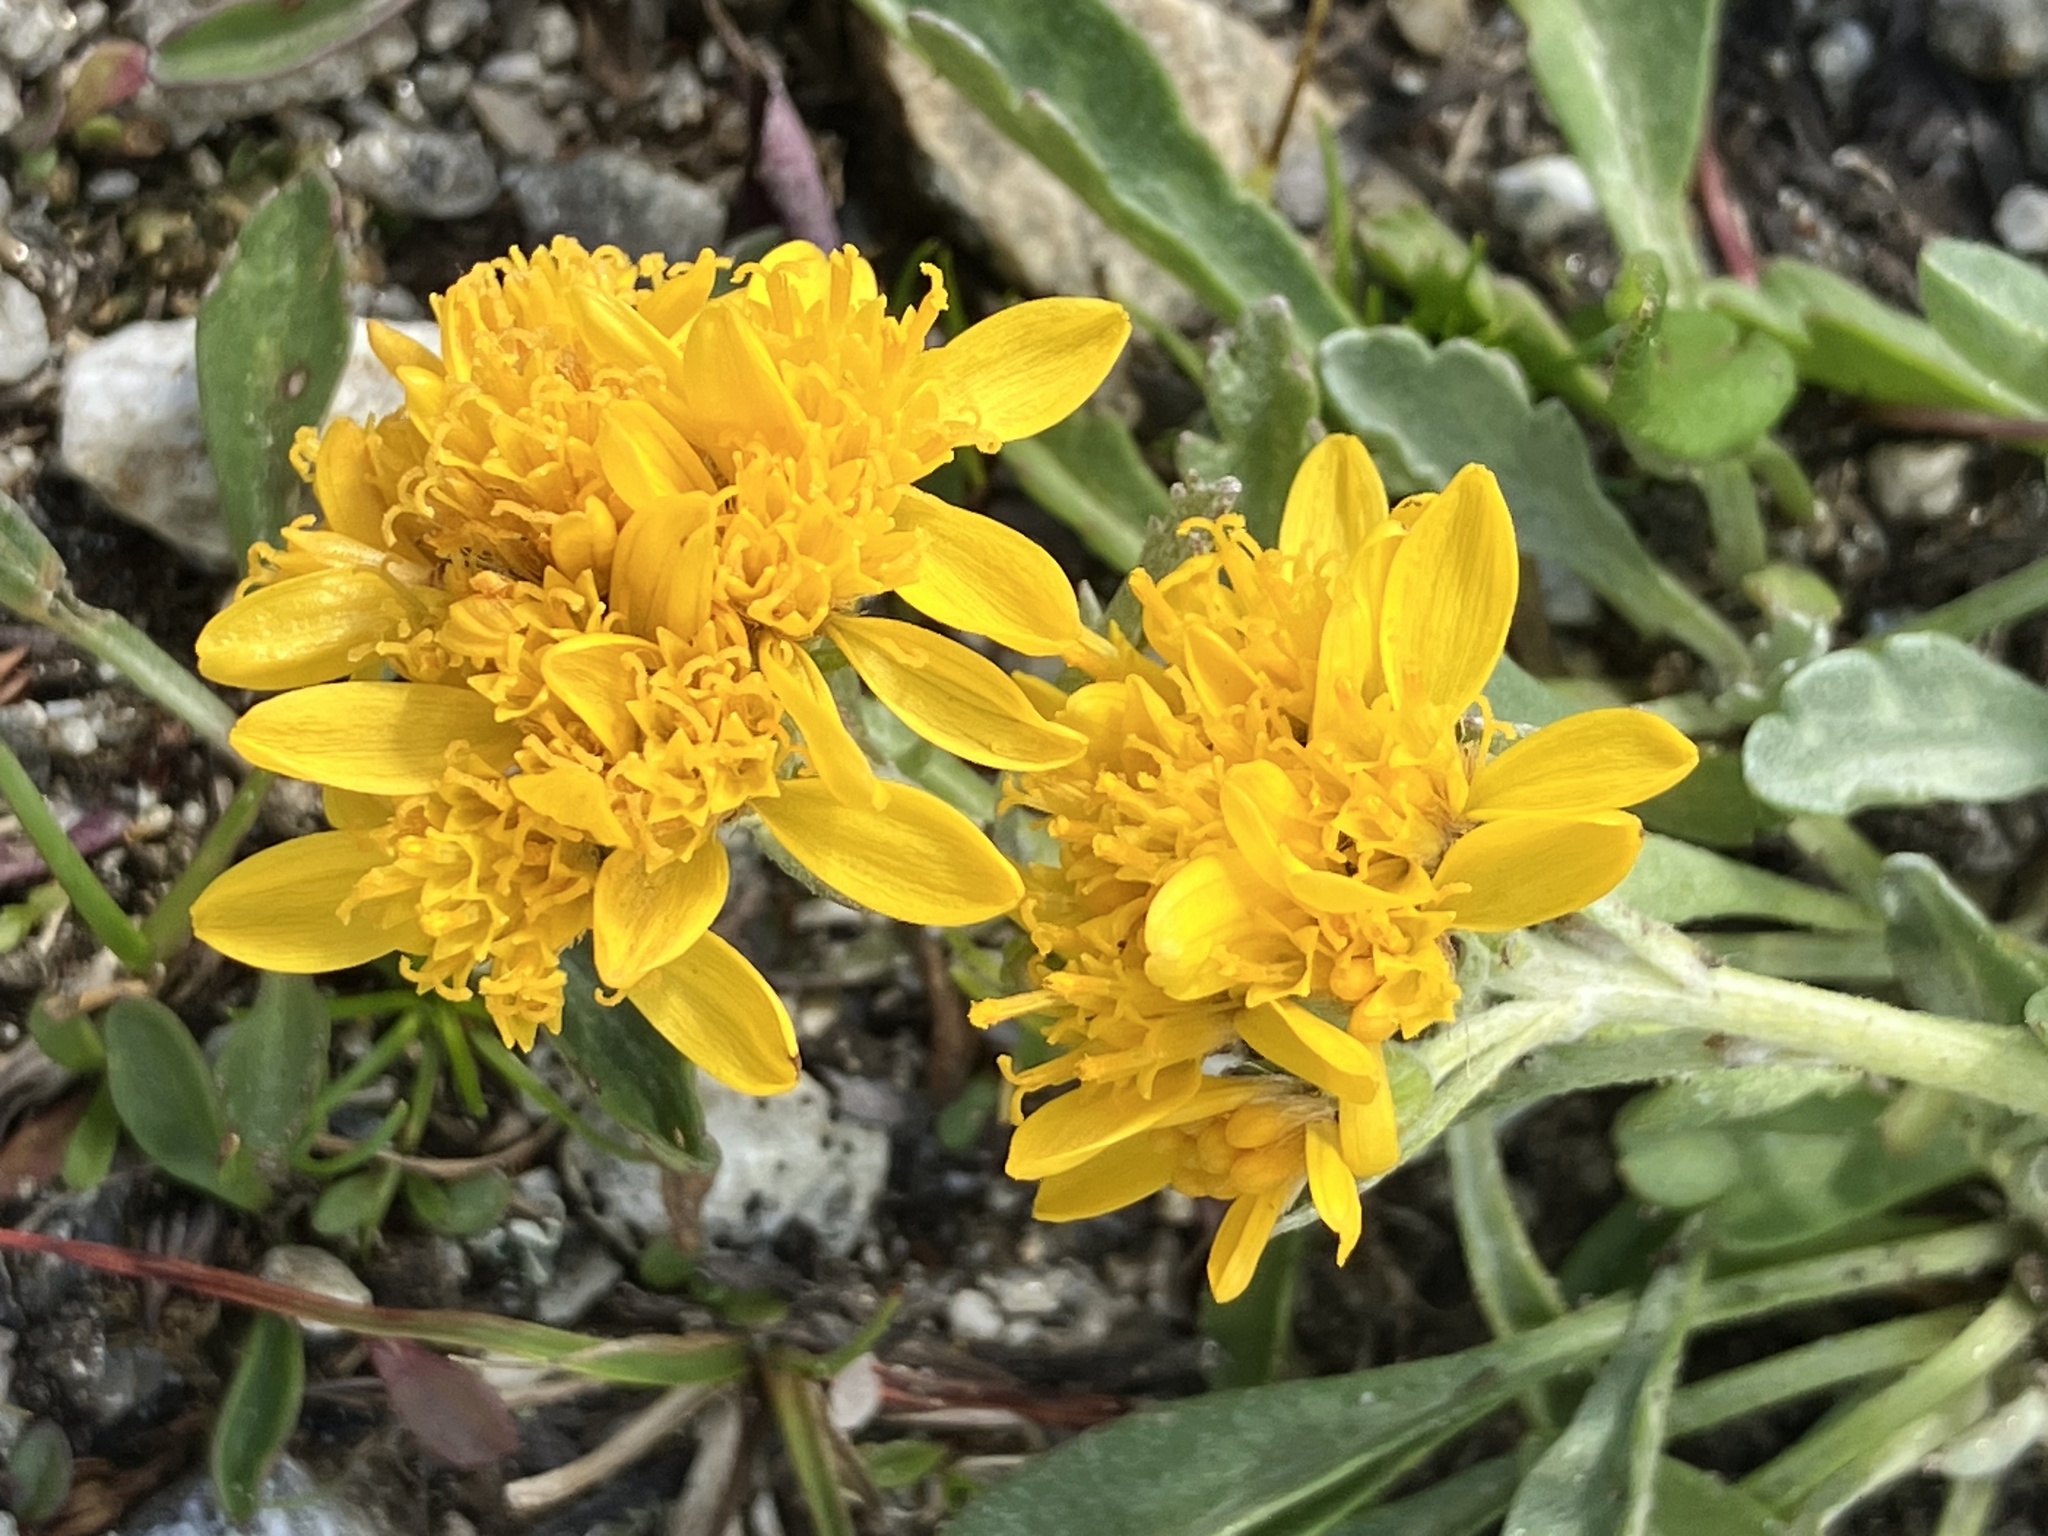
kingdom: Plantae
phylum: Tracheophyta
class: Magnoliopsida
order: Asterales
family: Asteraceae
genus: Jacobaea
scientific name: Jacobaea carniolica
